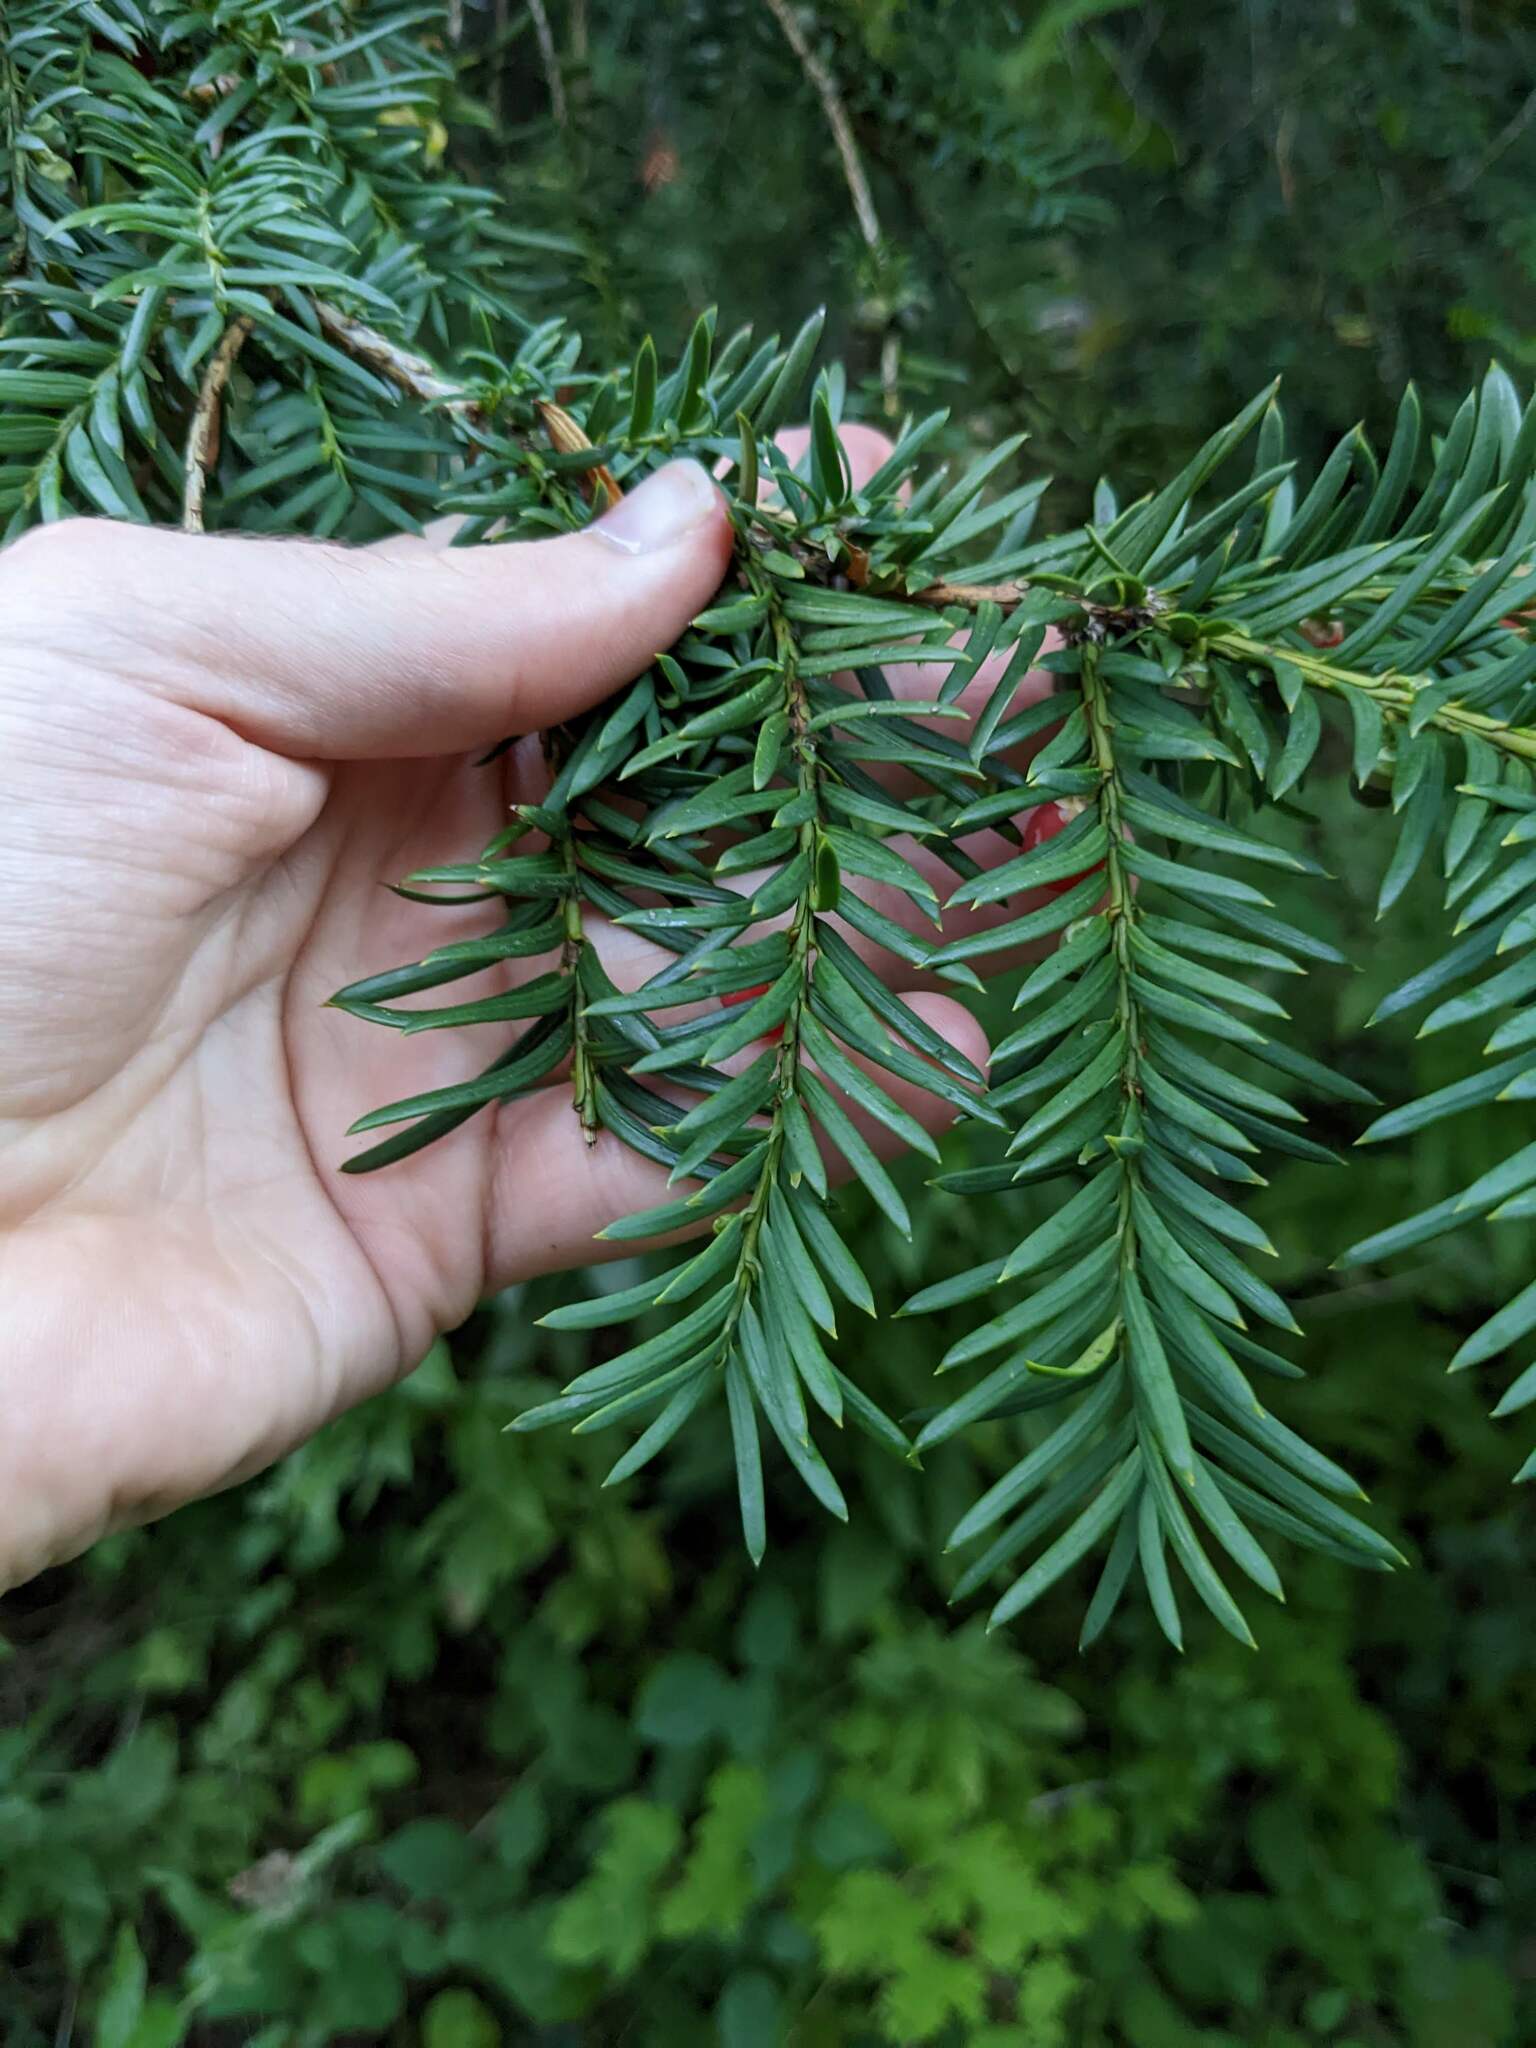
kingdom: Plantae
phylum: Tracheophyta
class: Pinopsida
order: Pinales
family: Taxaceae
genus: Taxus
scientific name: Taxus baccata
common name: Yew
